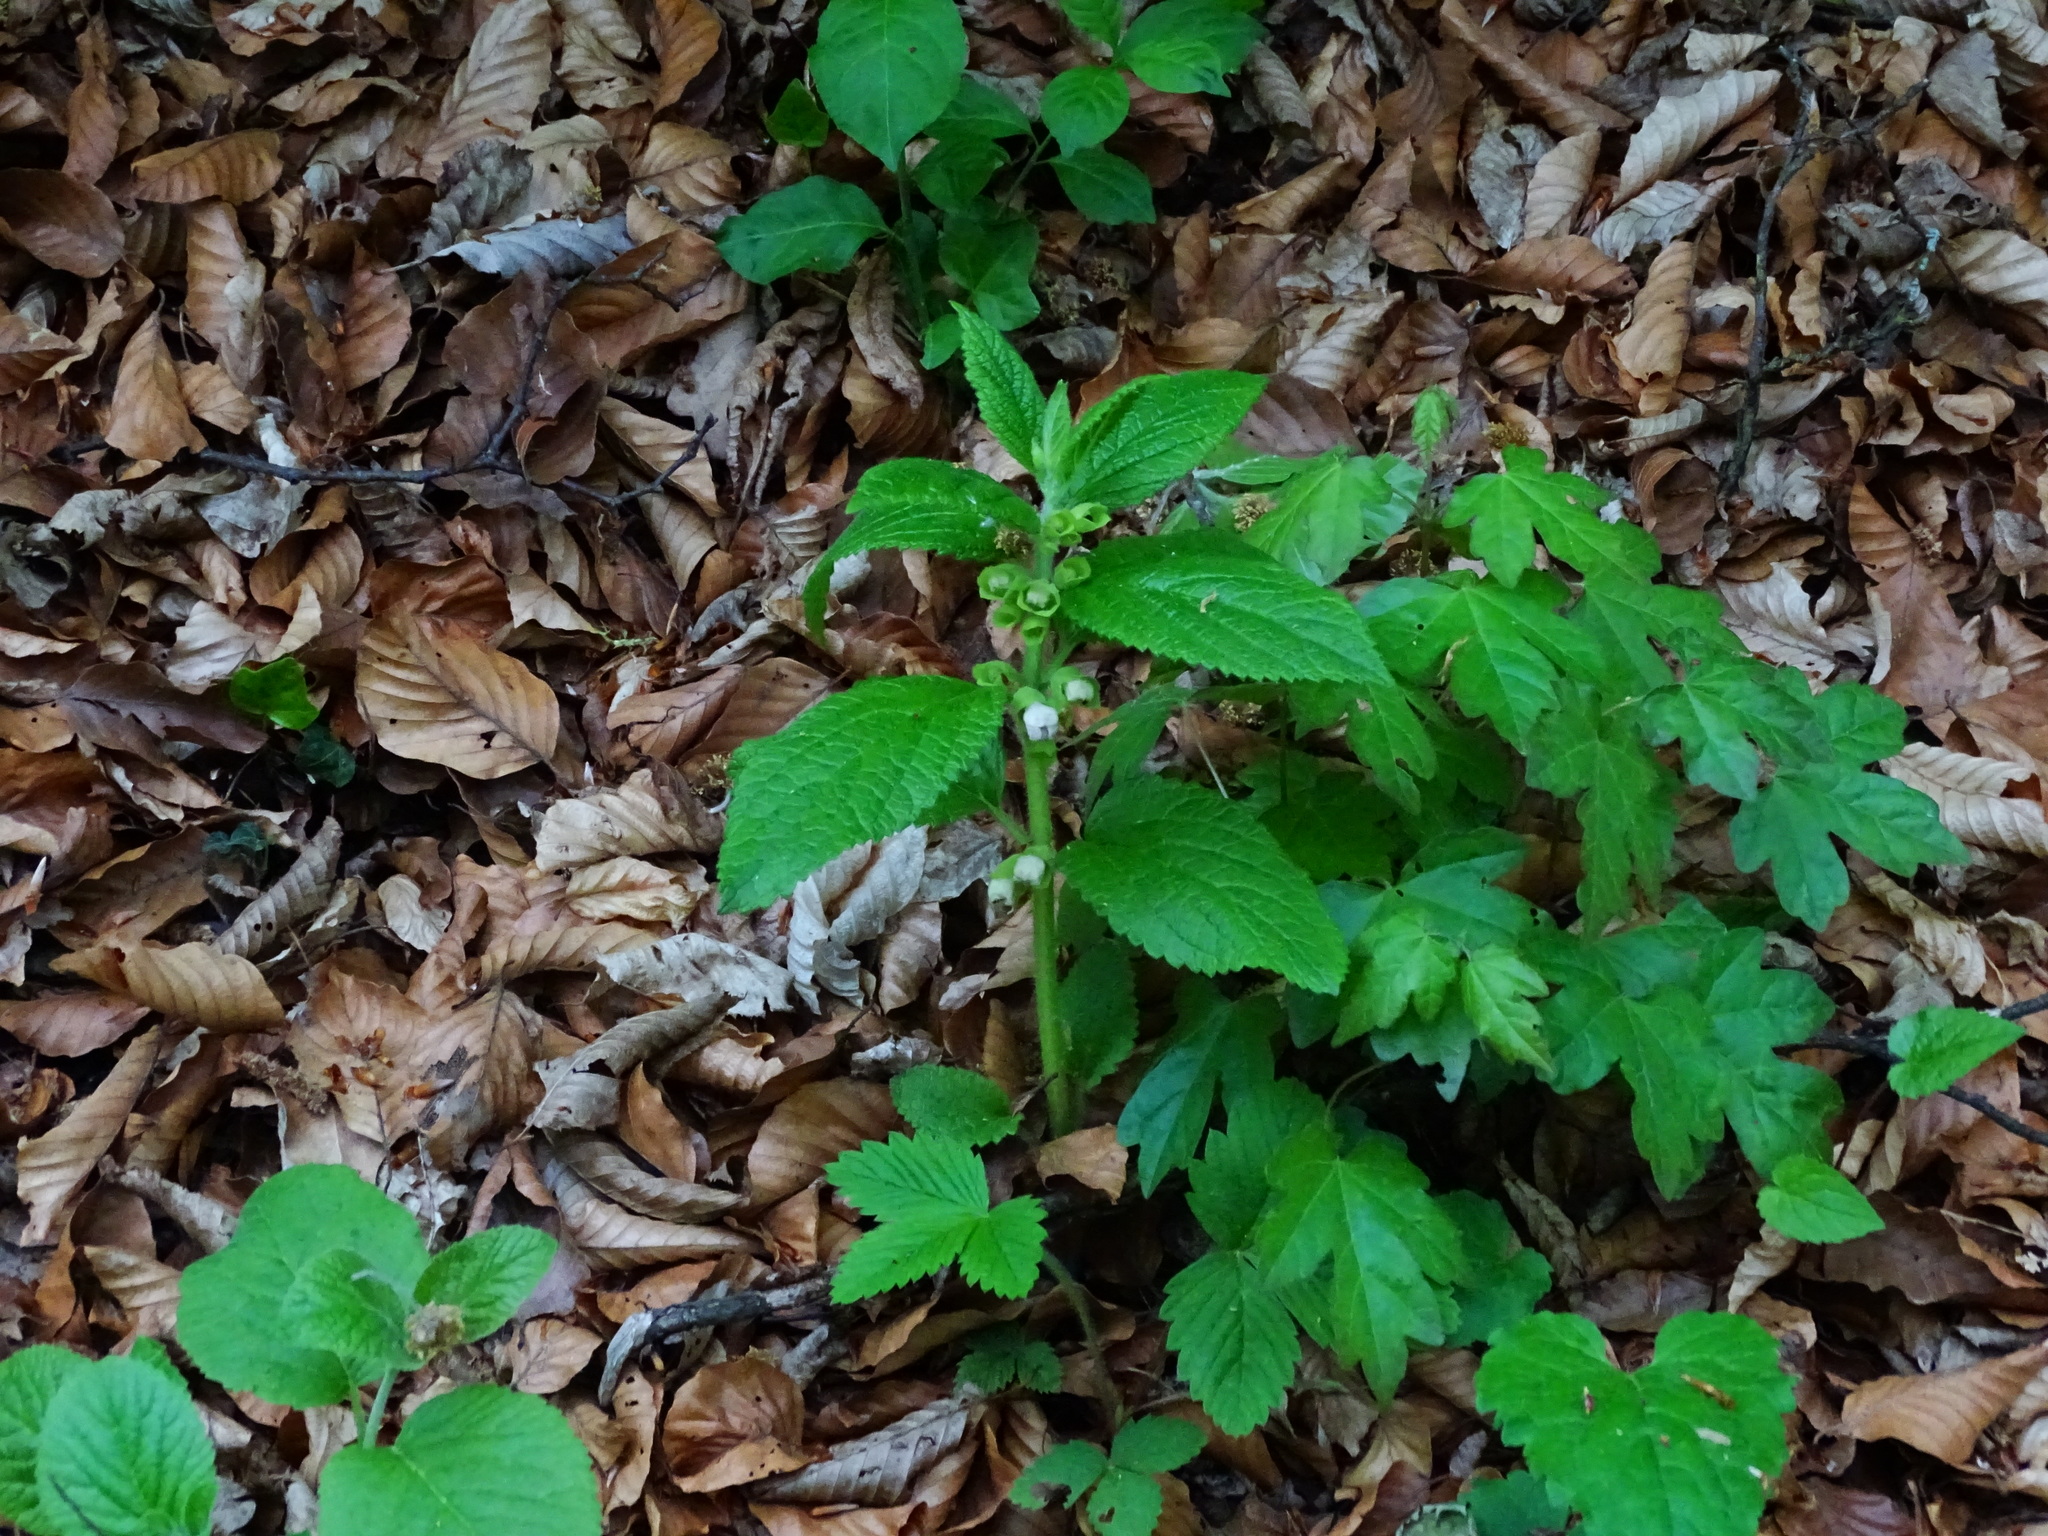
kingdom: Plantae
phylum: Tracheophyta
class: Magnoliopsida
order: Lamiales
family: Lamiaceae
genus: Melittis
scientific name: Melittis melissophyllum
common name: Bastard balm
